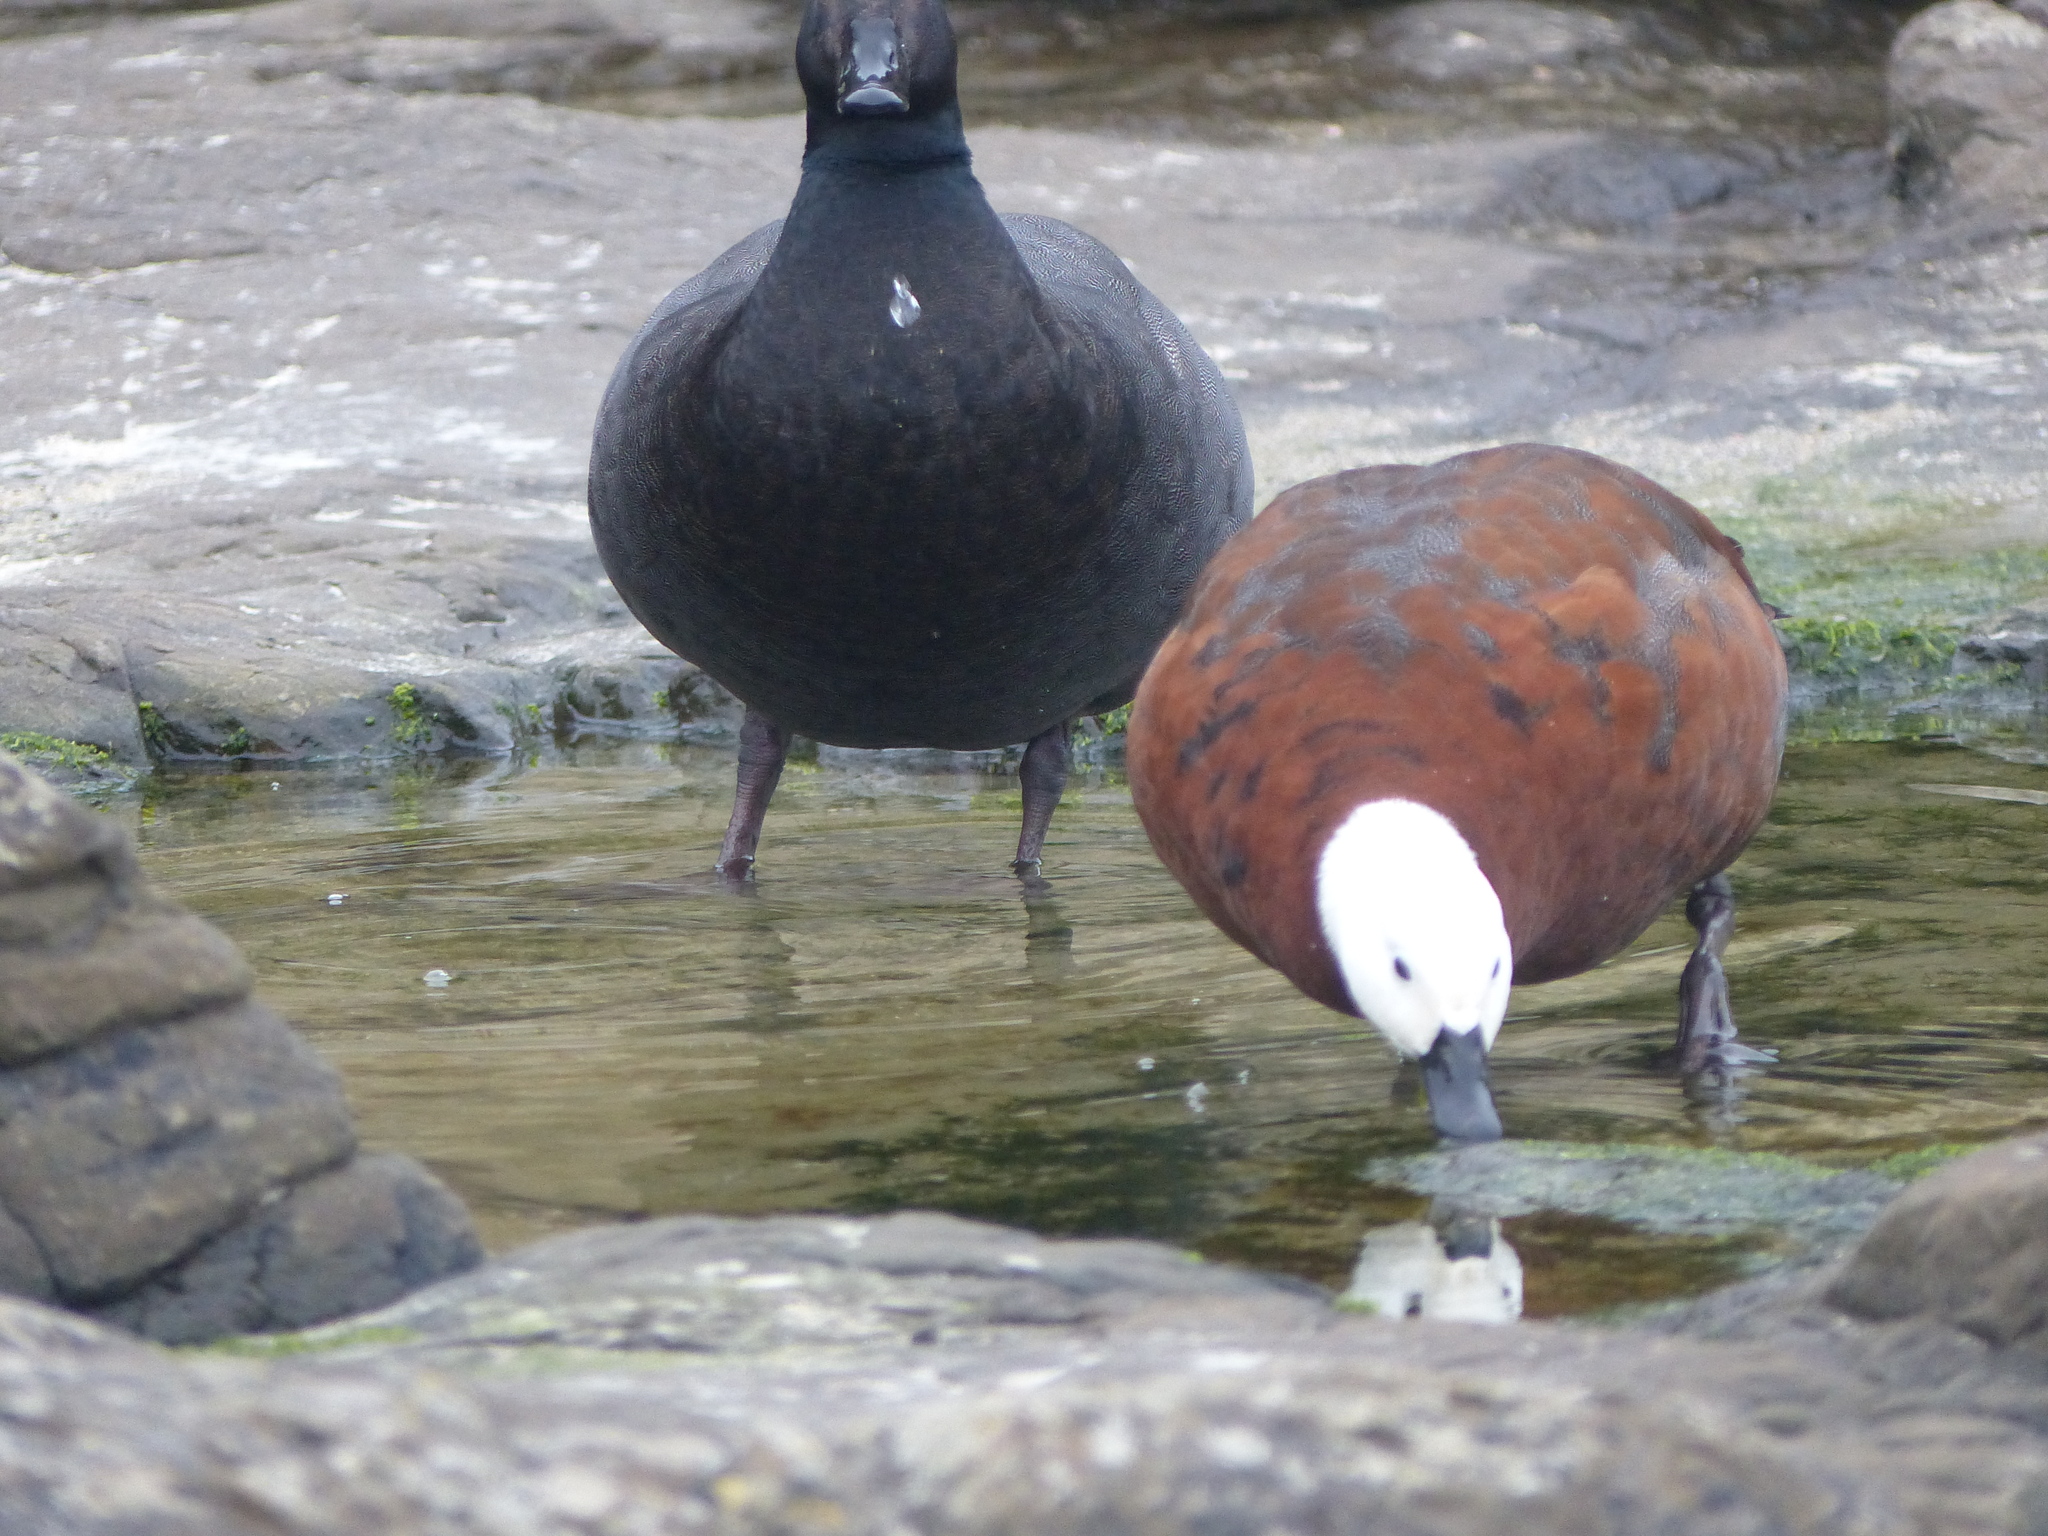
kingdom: Animalia
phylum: Chordata
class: Aves
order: Anseriformes
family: Anatidae
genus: Tadorna
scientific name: Tadorna variegata
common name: Paradise shelduck
